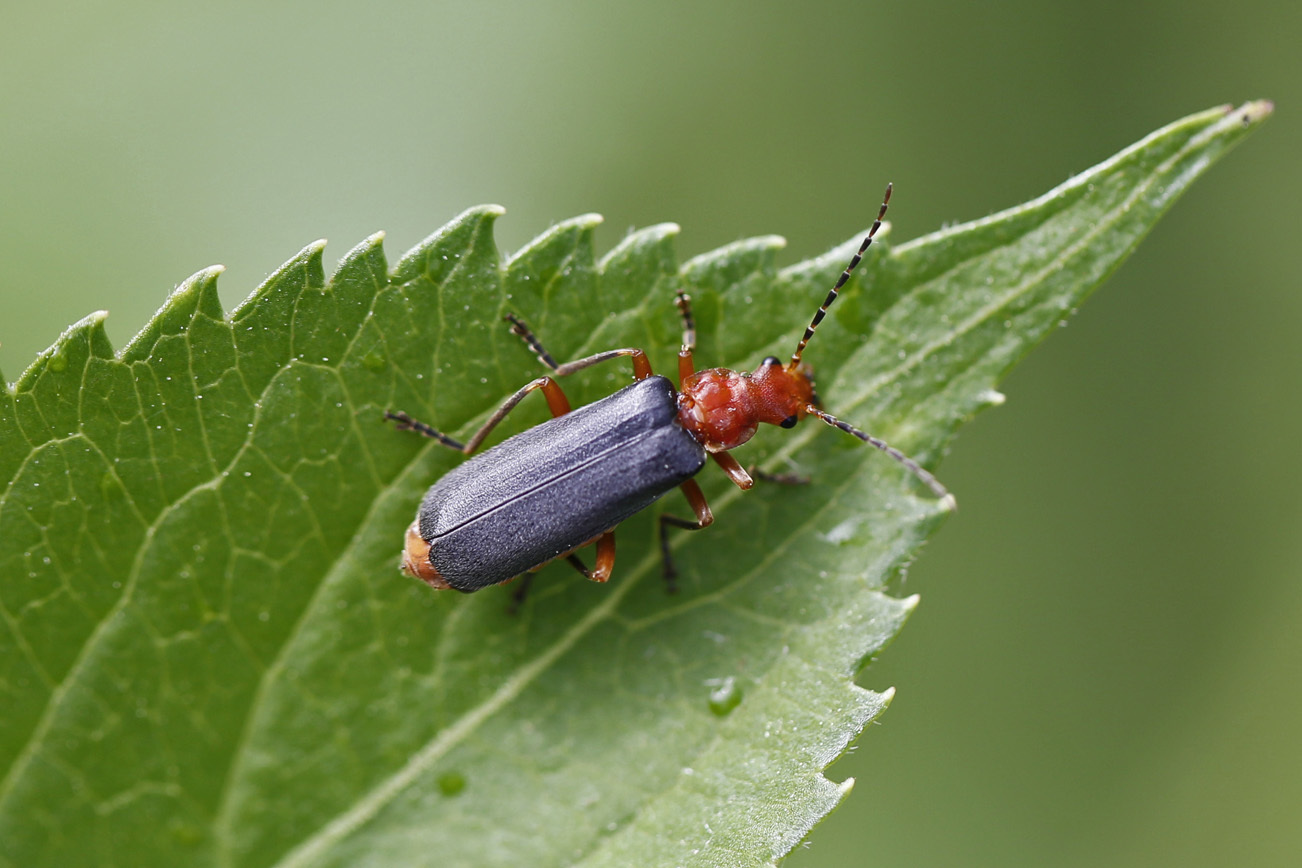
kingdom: Animalia
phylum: Arthropoda
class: Insecta
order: Coleoptera
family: Cantharidae
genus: Podabrus
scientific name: Podabrus tomentosus
